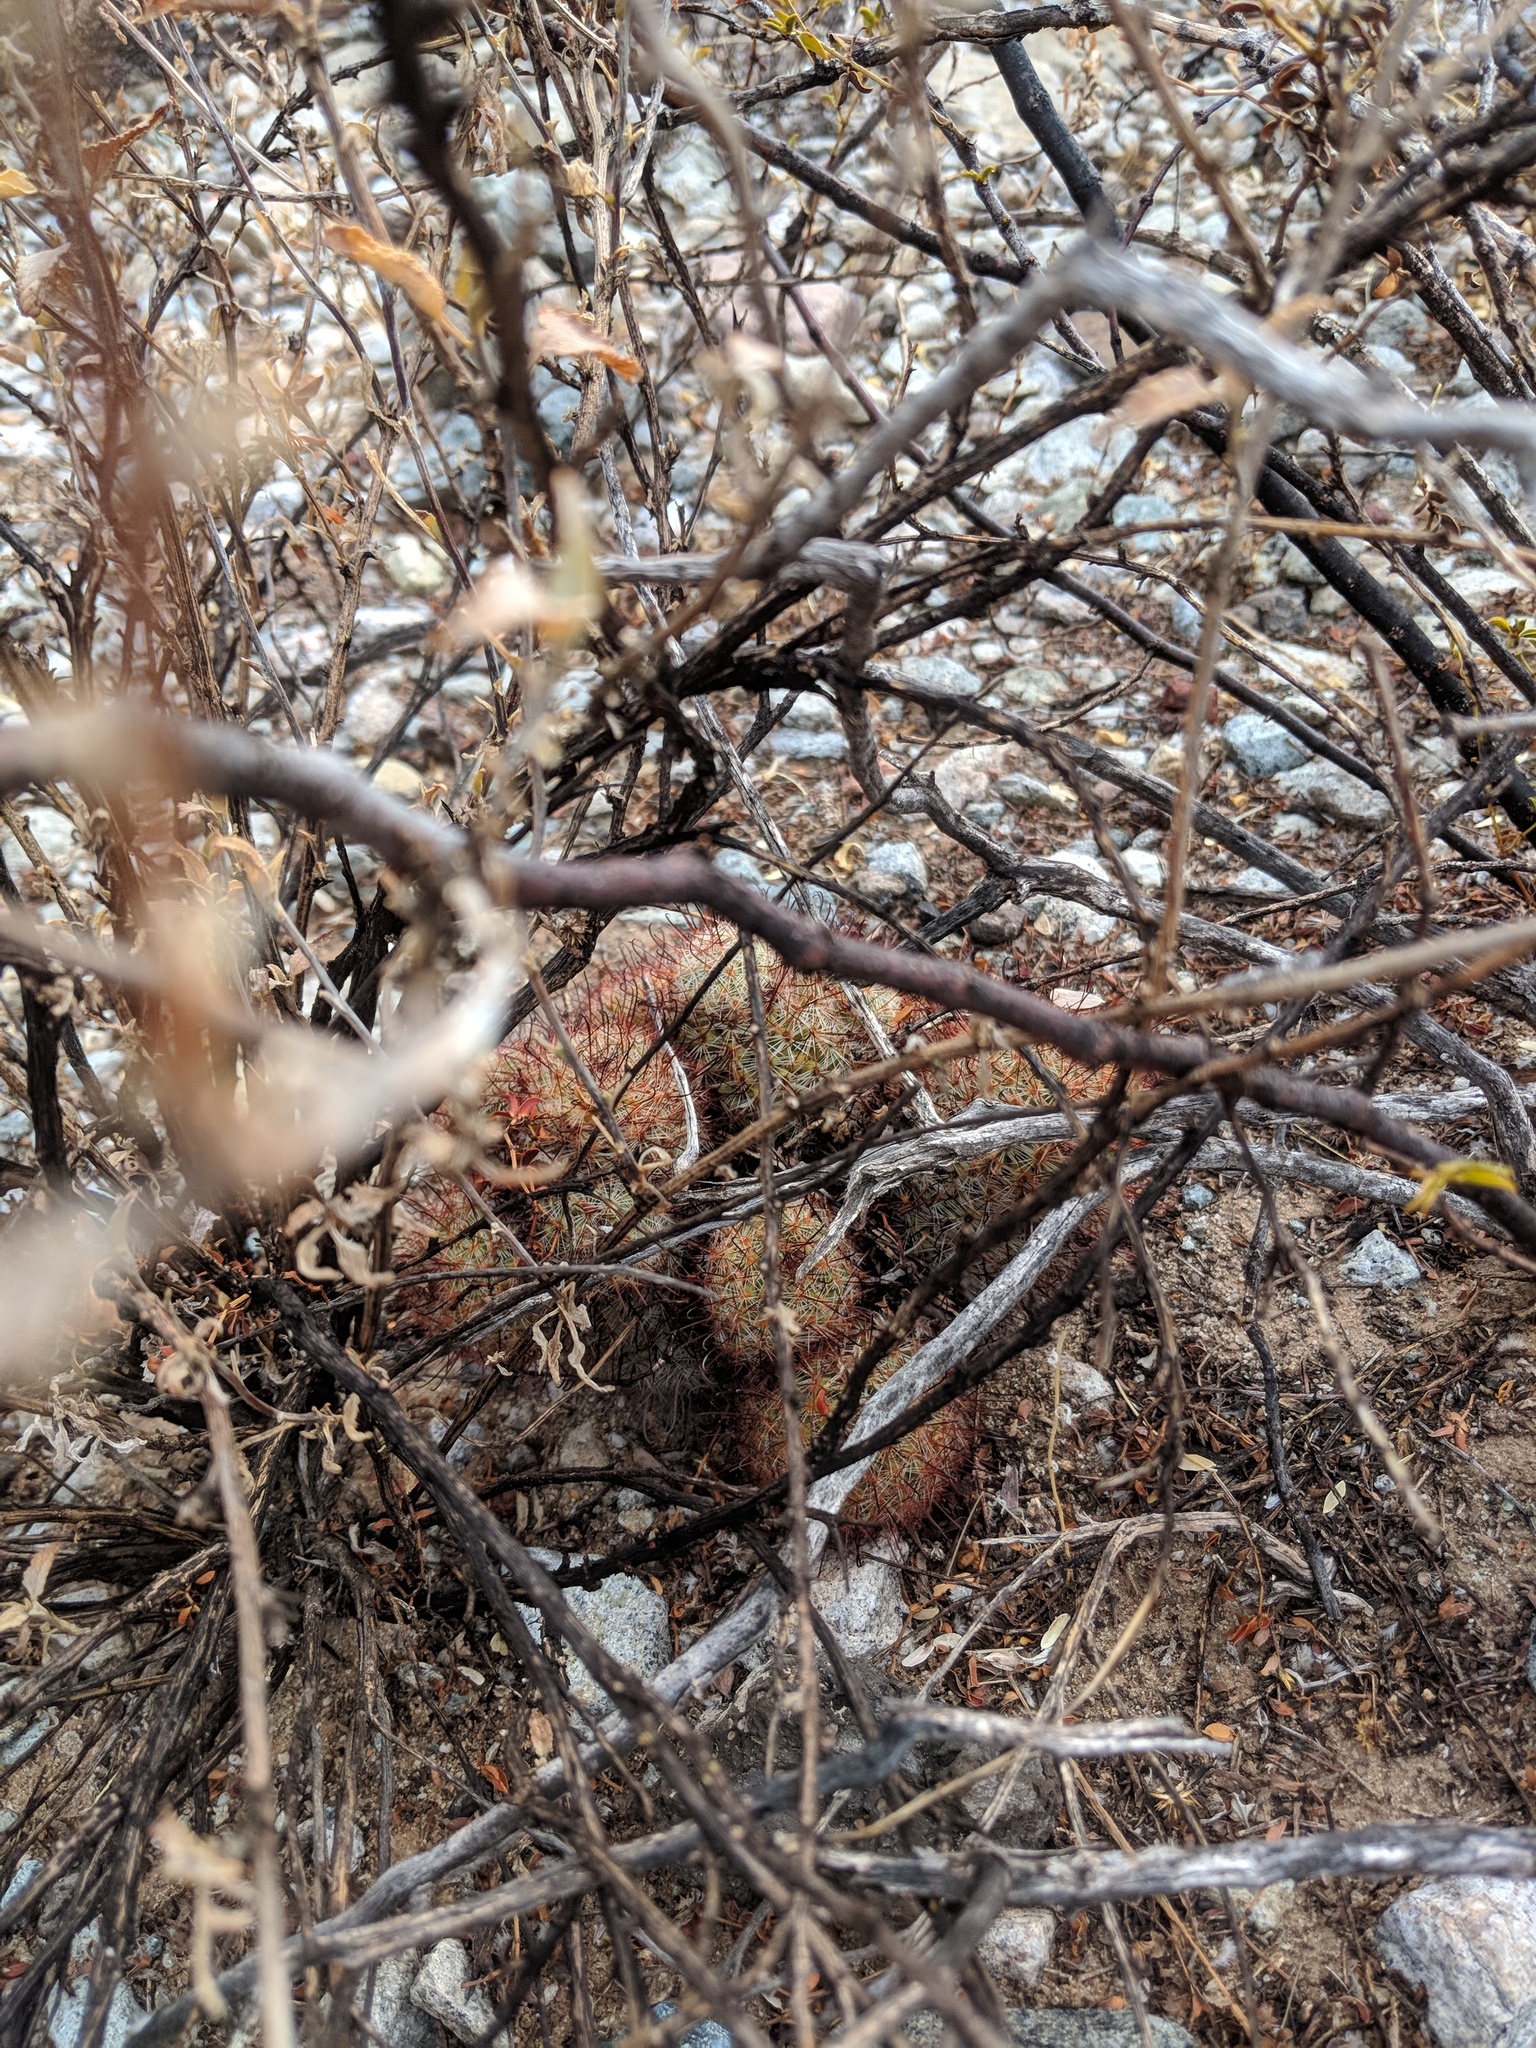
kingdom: Plantae
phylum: Tracheophyta
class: Magnoliopsida
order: Caryophyllales
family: Cactaceae
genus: Cochemiea
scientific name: Cochemiea grahamii
